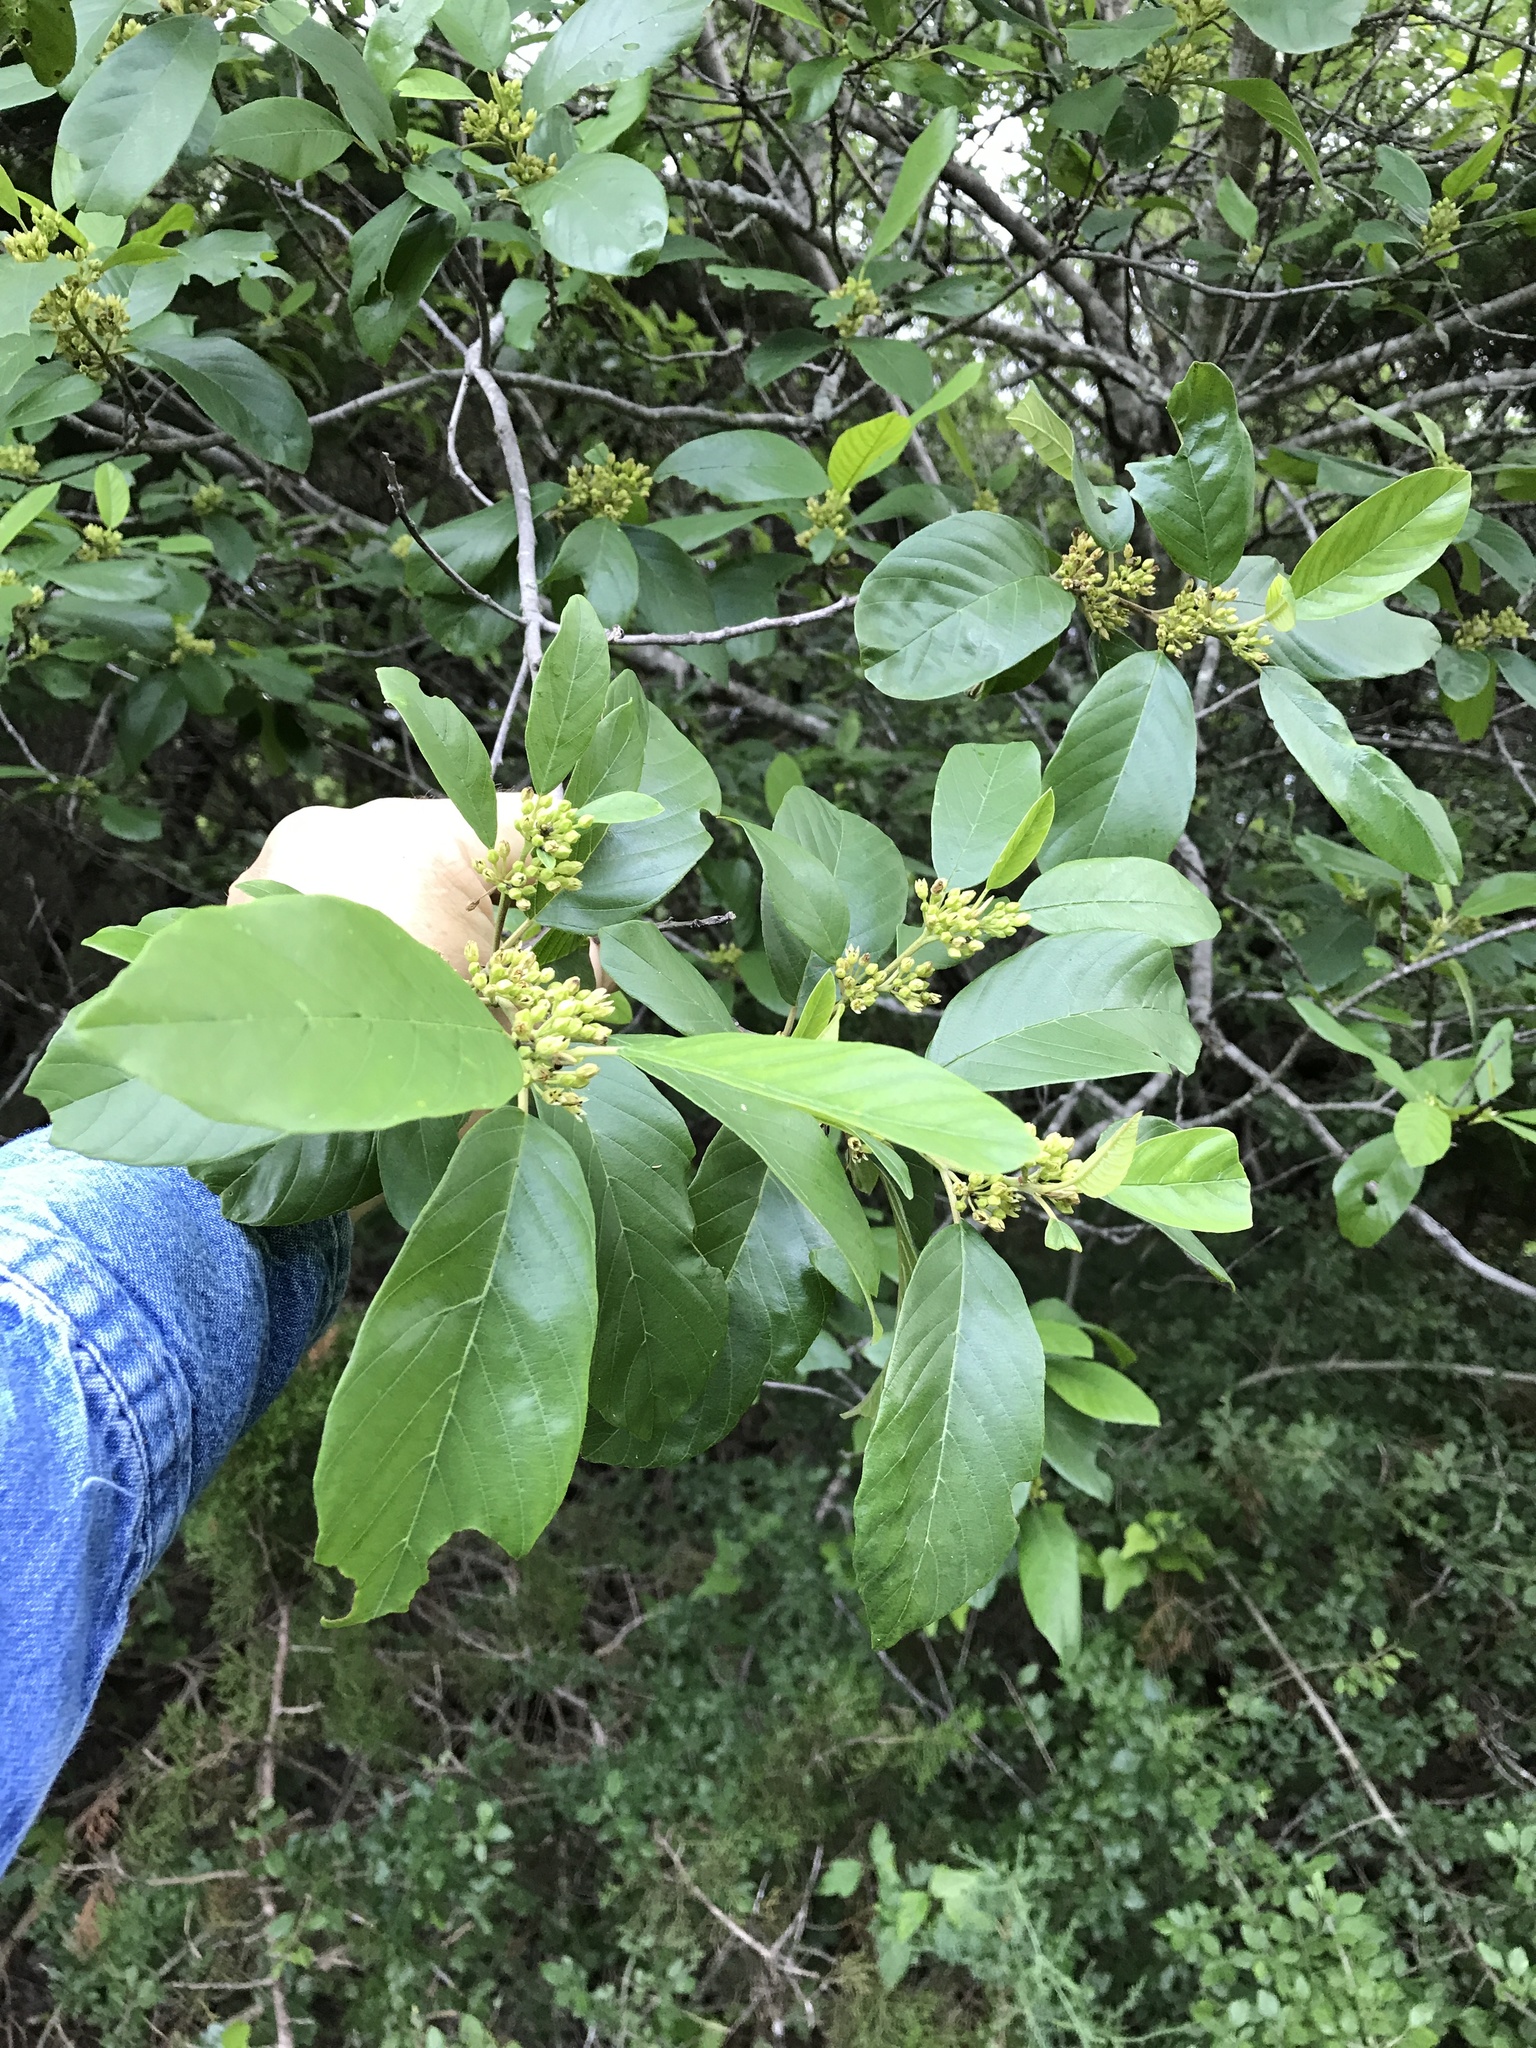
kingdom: Plantae
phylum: Tracheophyta
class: Magnoliopsida
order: Rosales
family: Rhamnaceae
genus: Frangula
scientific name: Frangula caroliniana
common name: Carolina buckthorn
